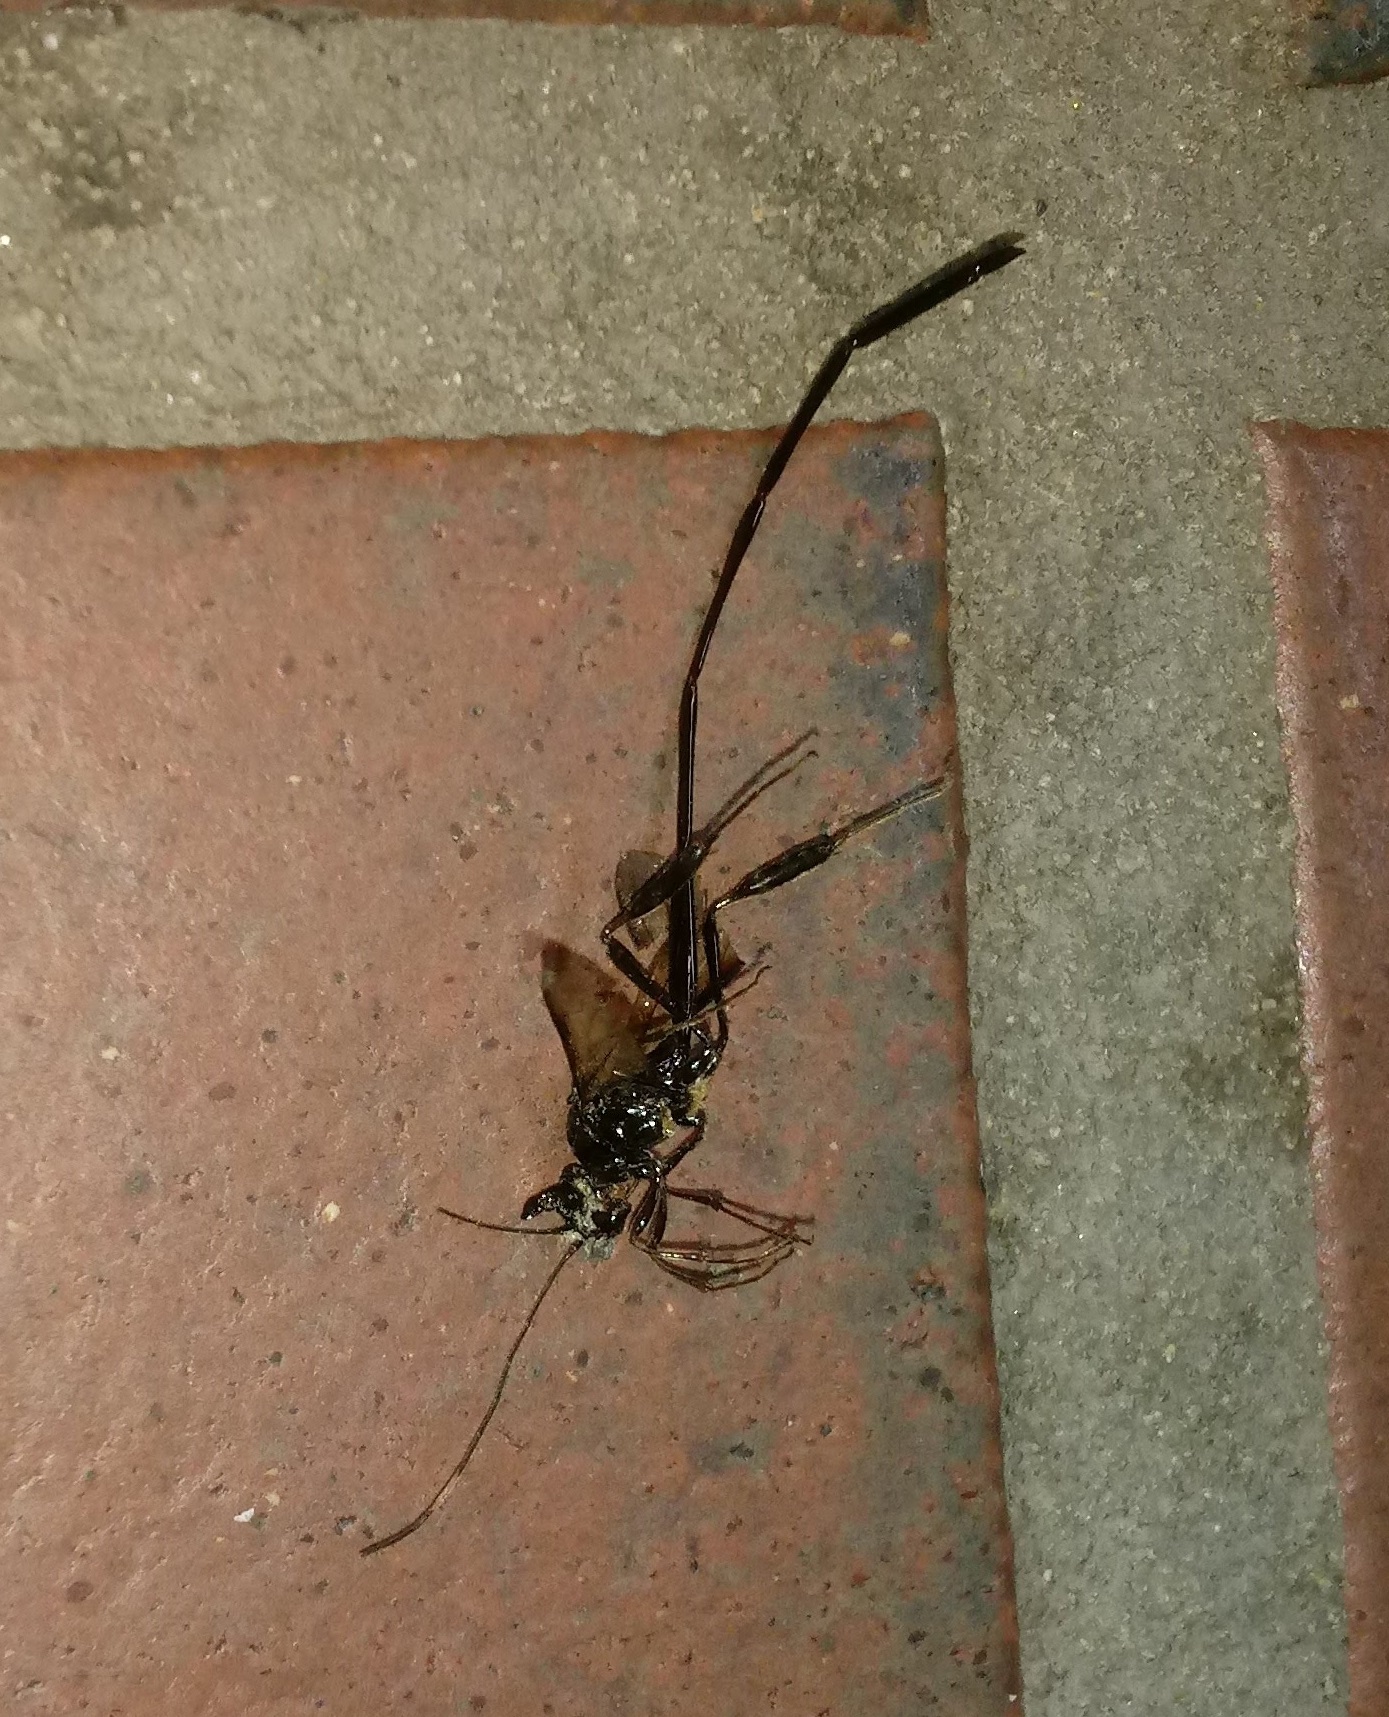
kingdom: Animalia
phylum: Arthropoda
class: Insecta
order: Hymenoptera
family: Pelecinidae
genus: Pelecinus
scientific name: Pelecinus polyturator
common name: American pelecinid wasp
